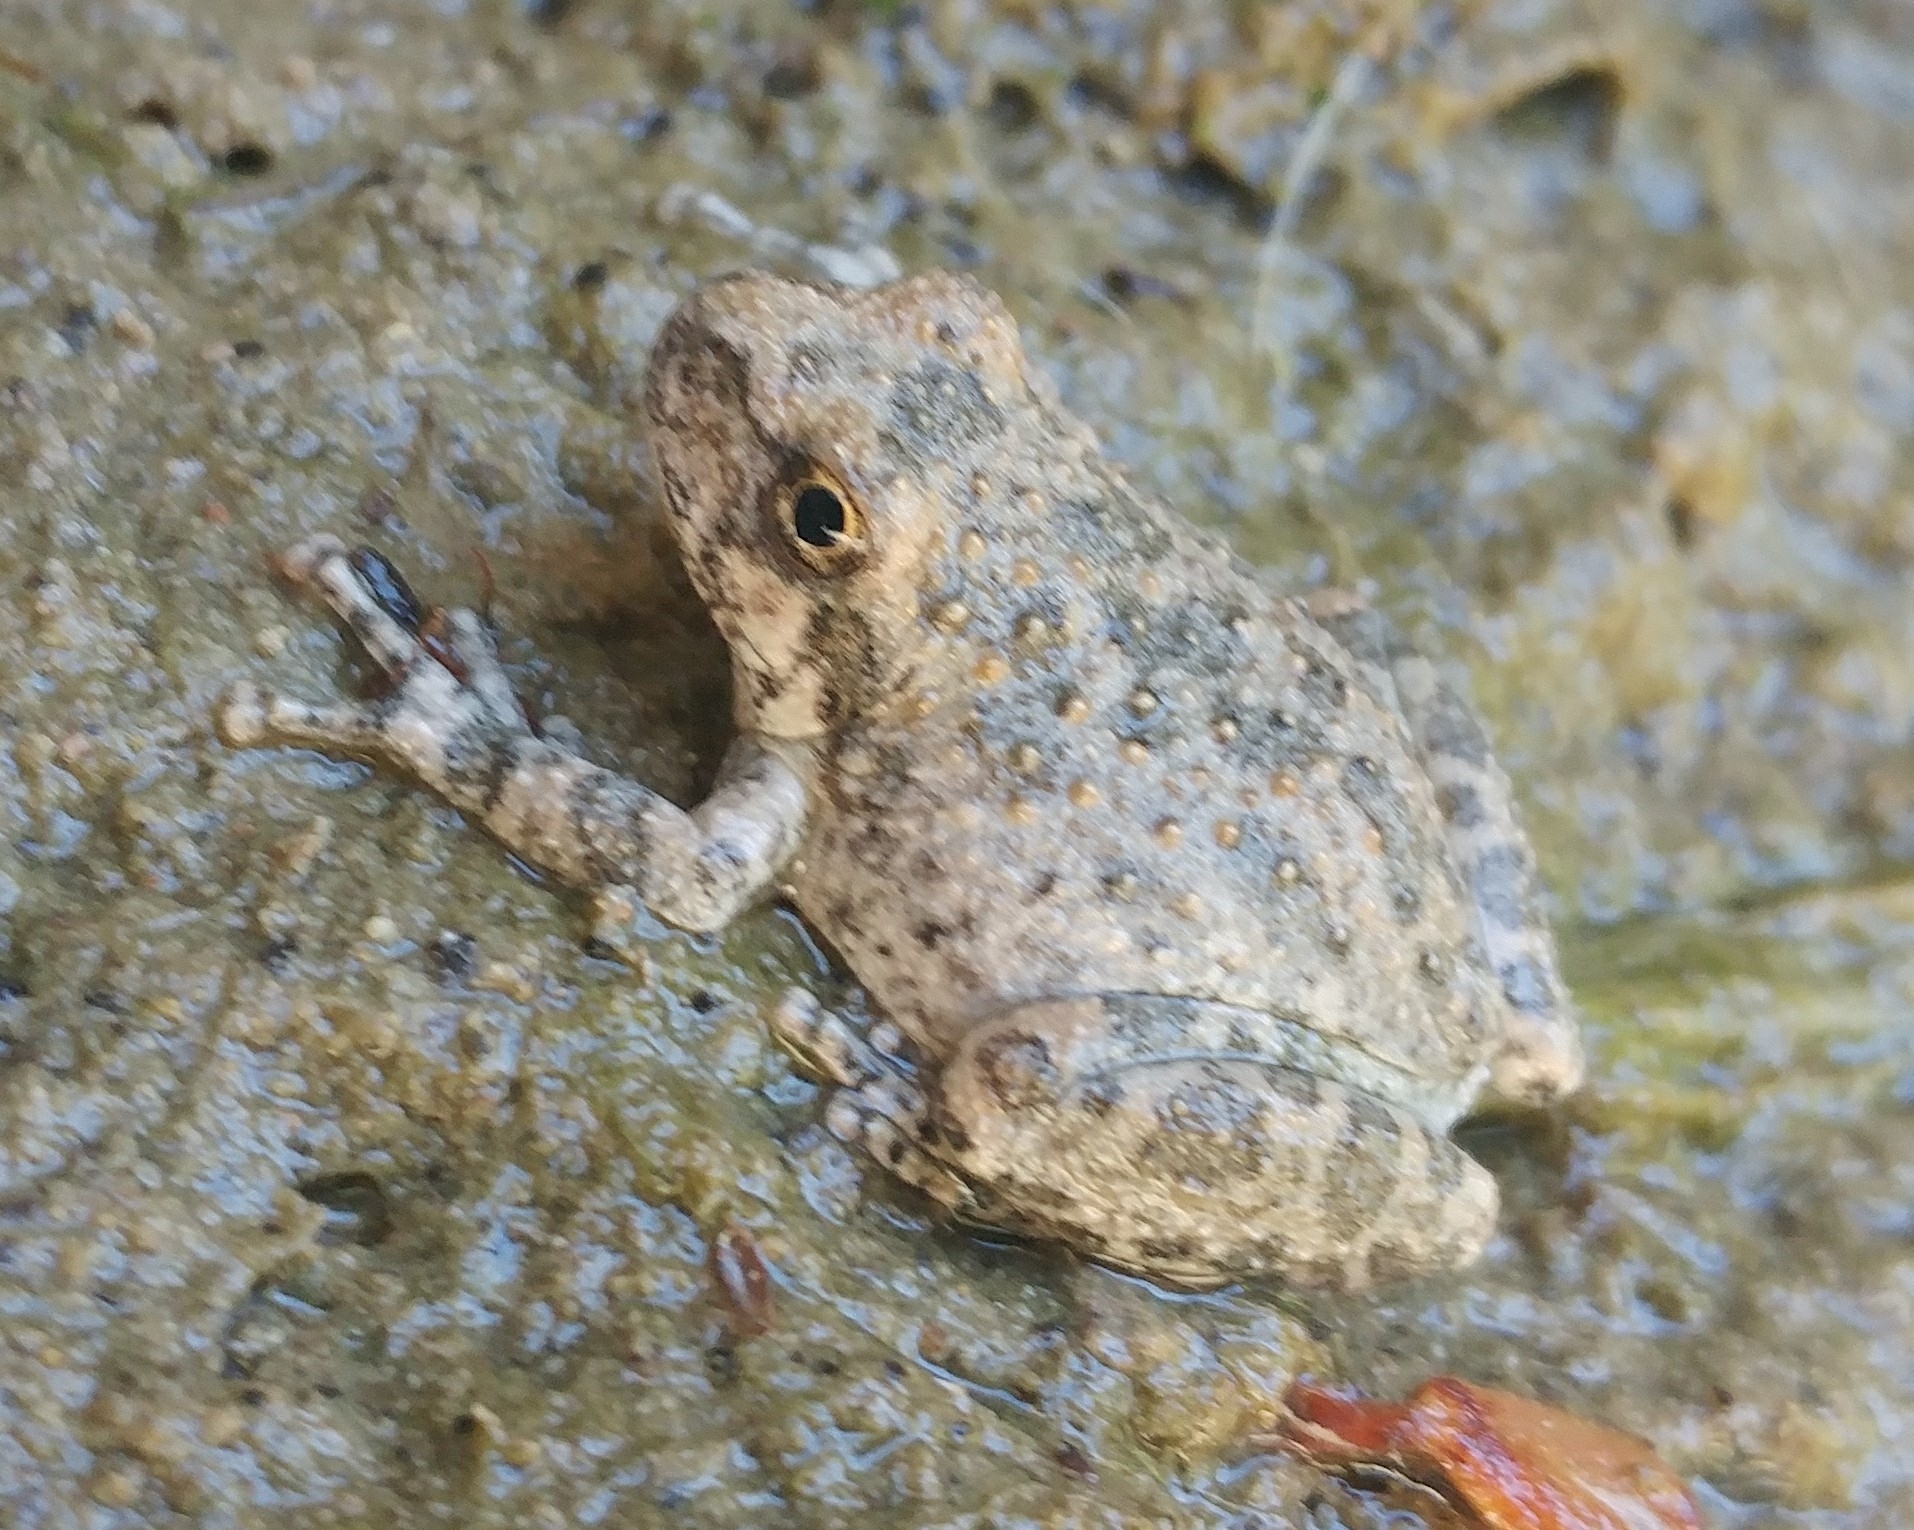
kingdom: Animalia
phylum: Chordata
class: Amphibia
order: Anura
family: Hylidae
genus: Pseudacris
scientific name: Pseudacris cadaverina
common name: California chorus frog
